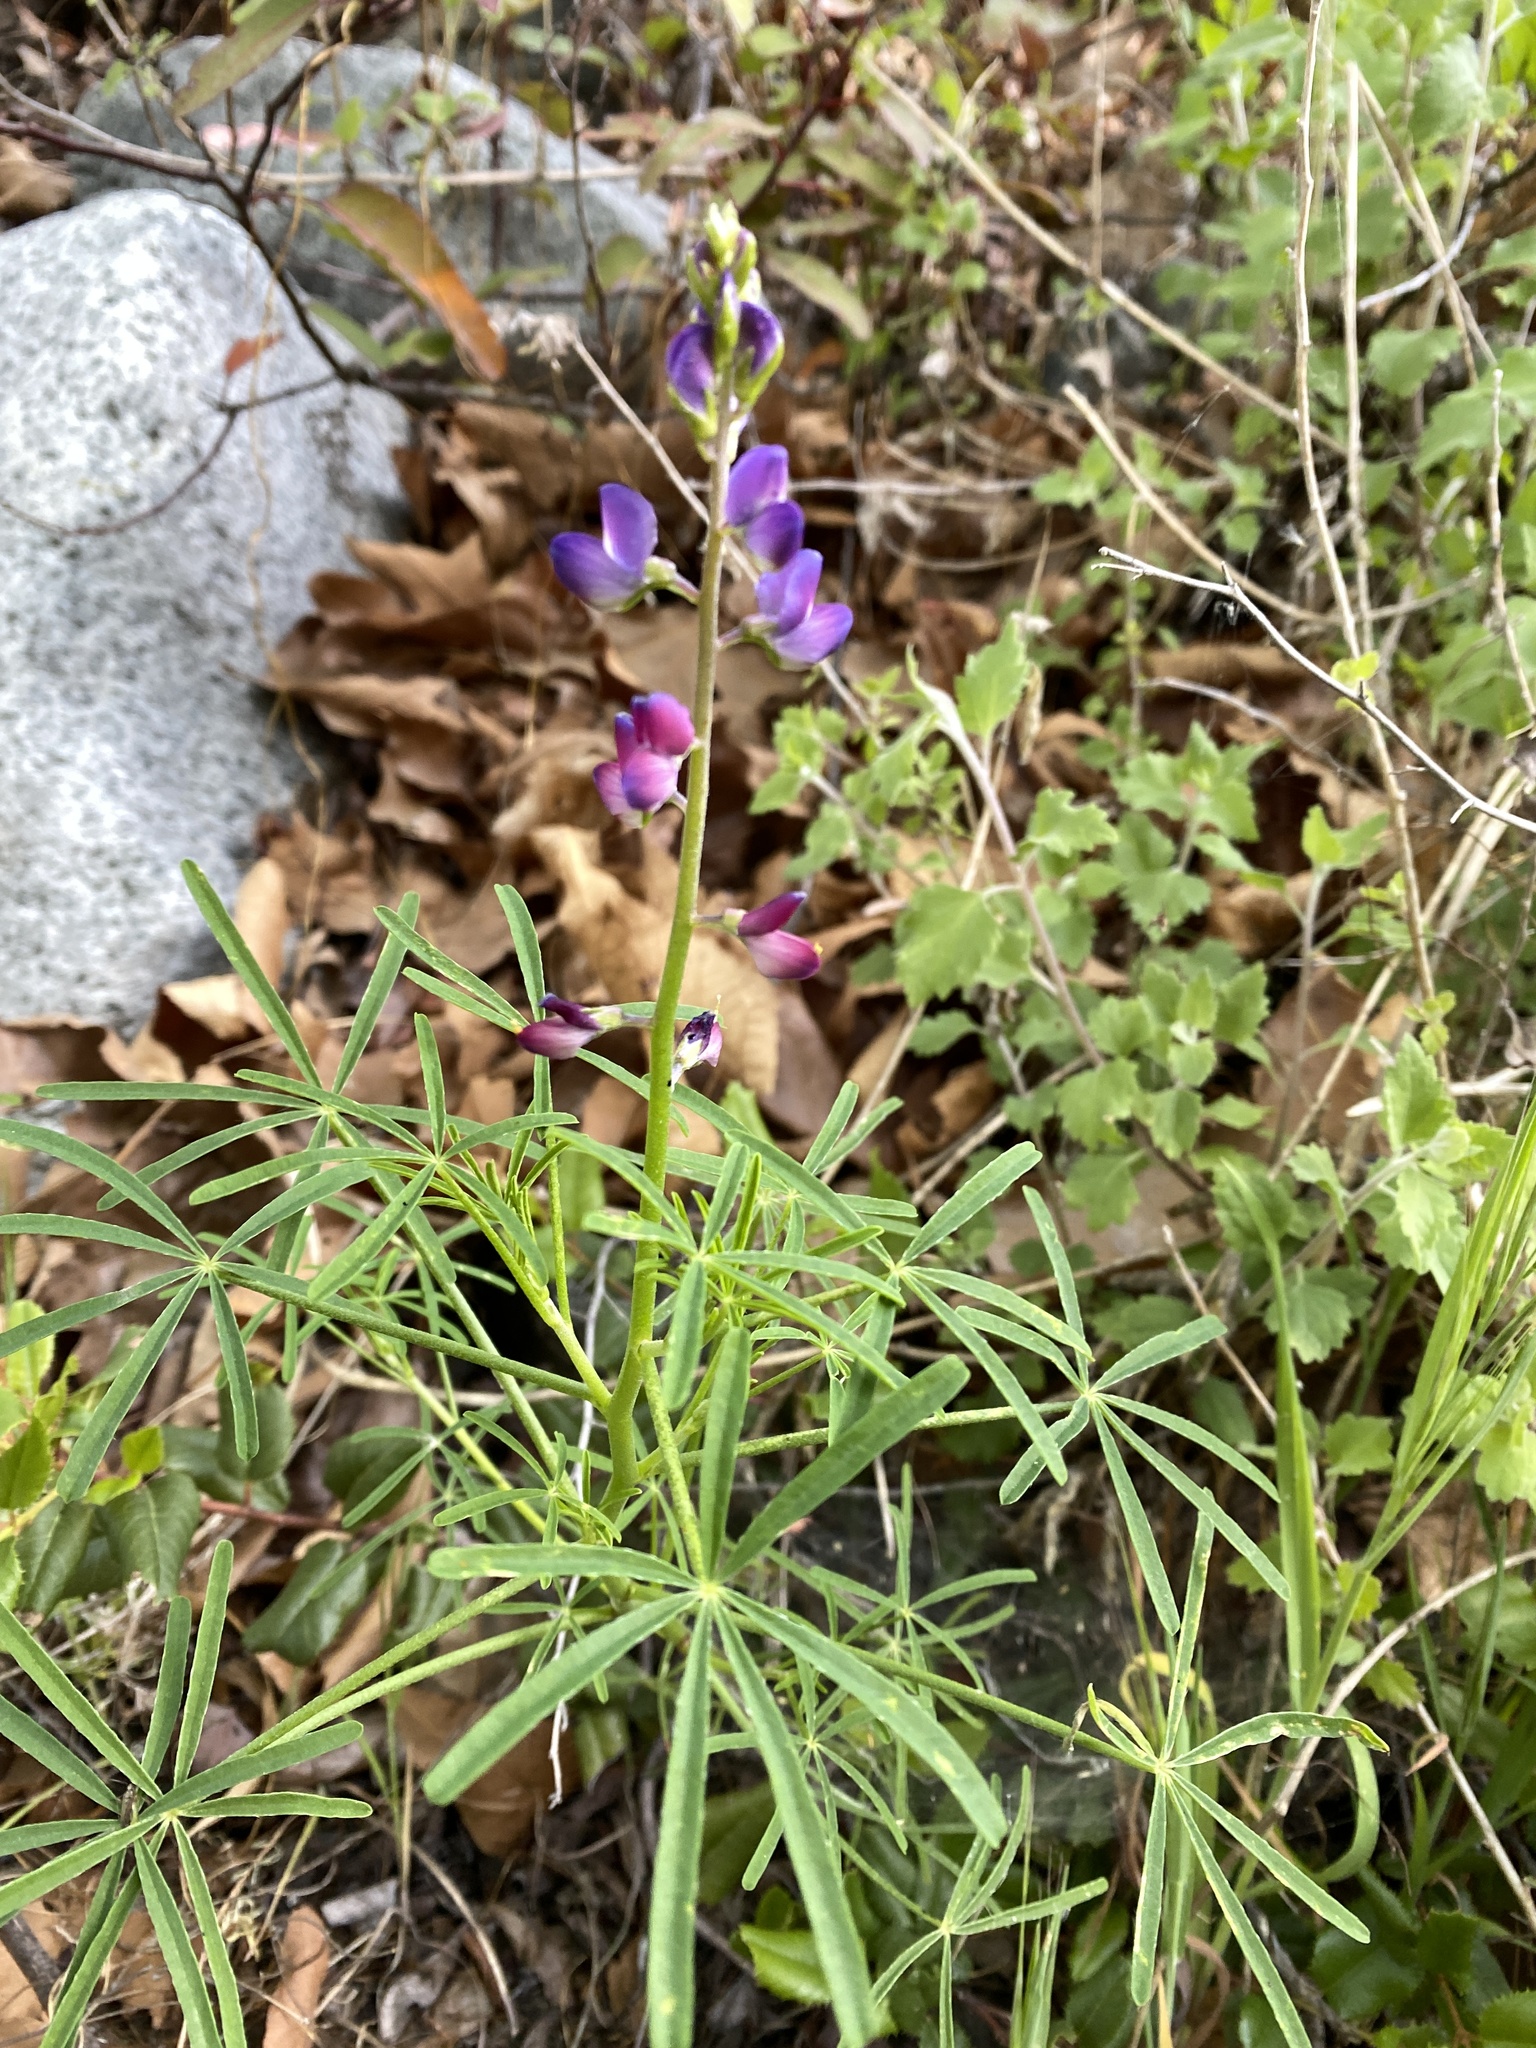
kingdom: Plantae
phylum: Tracheophyta
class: Magnoliopsida
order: Fabales
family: Fabaceae
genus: Lupinus
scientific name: Lupinus truncatus
